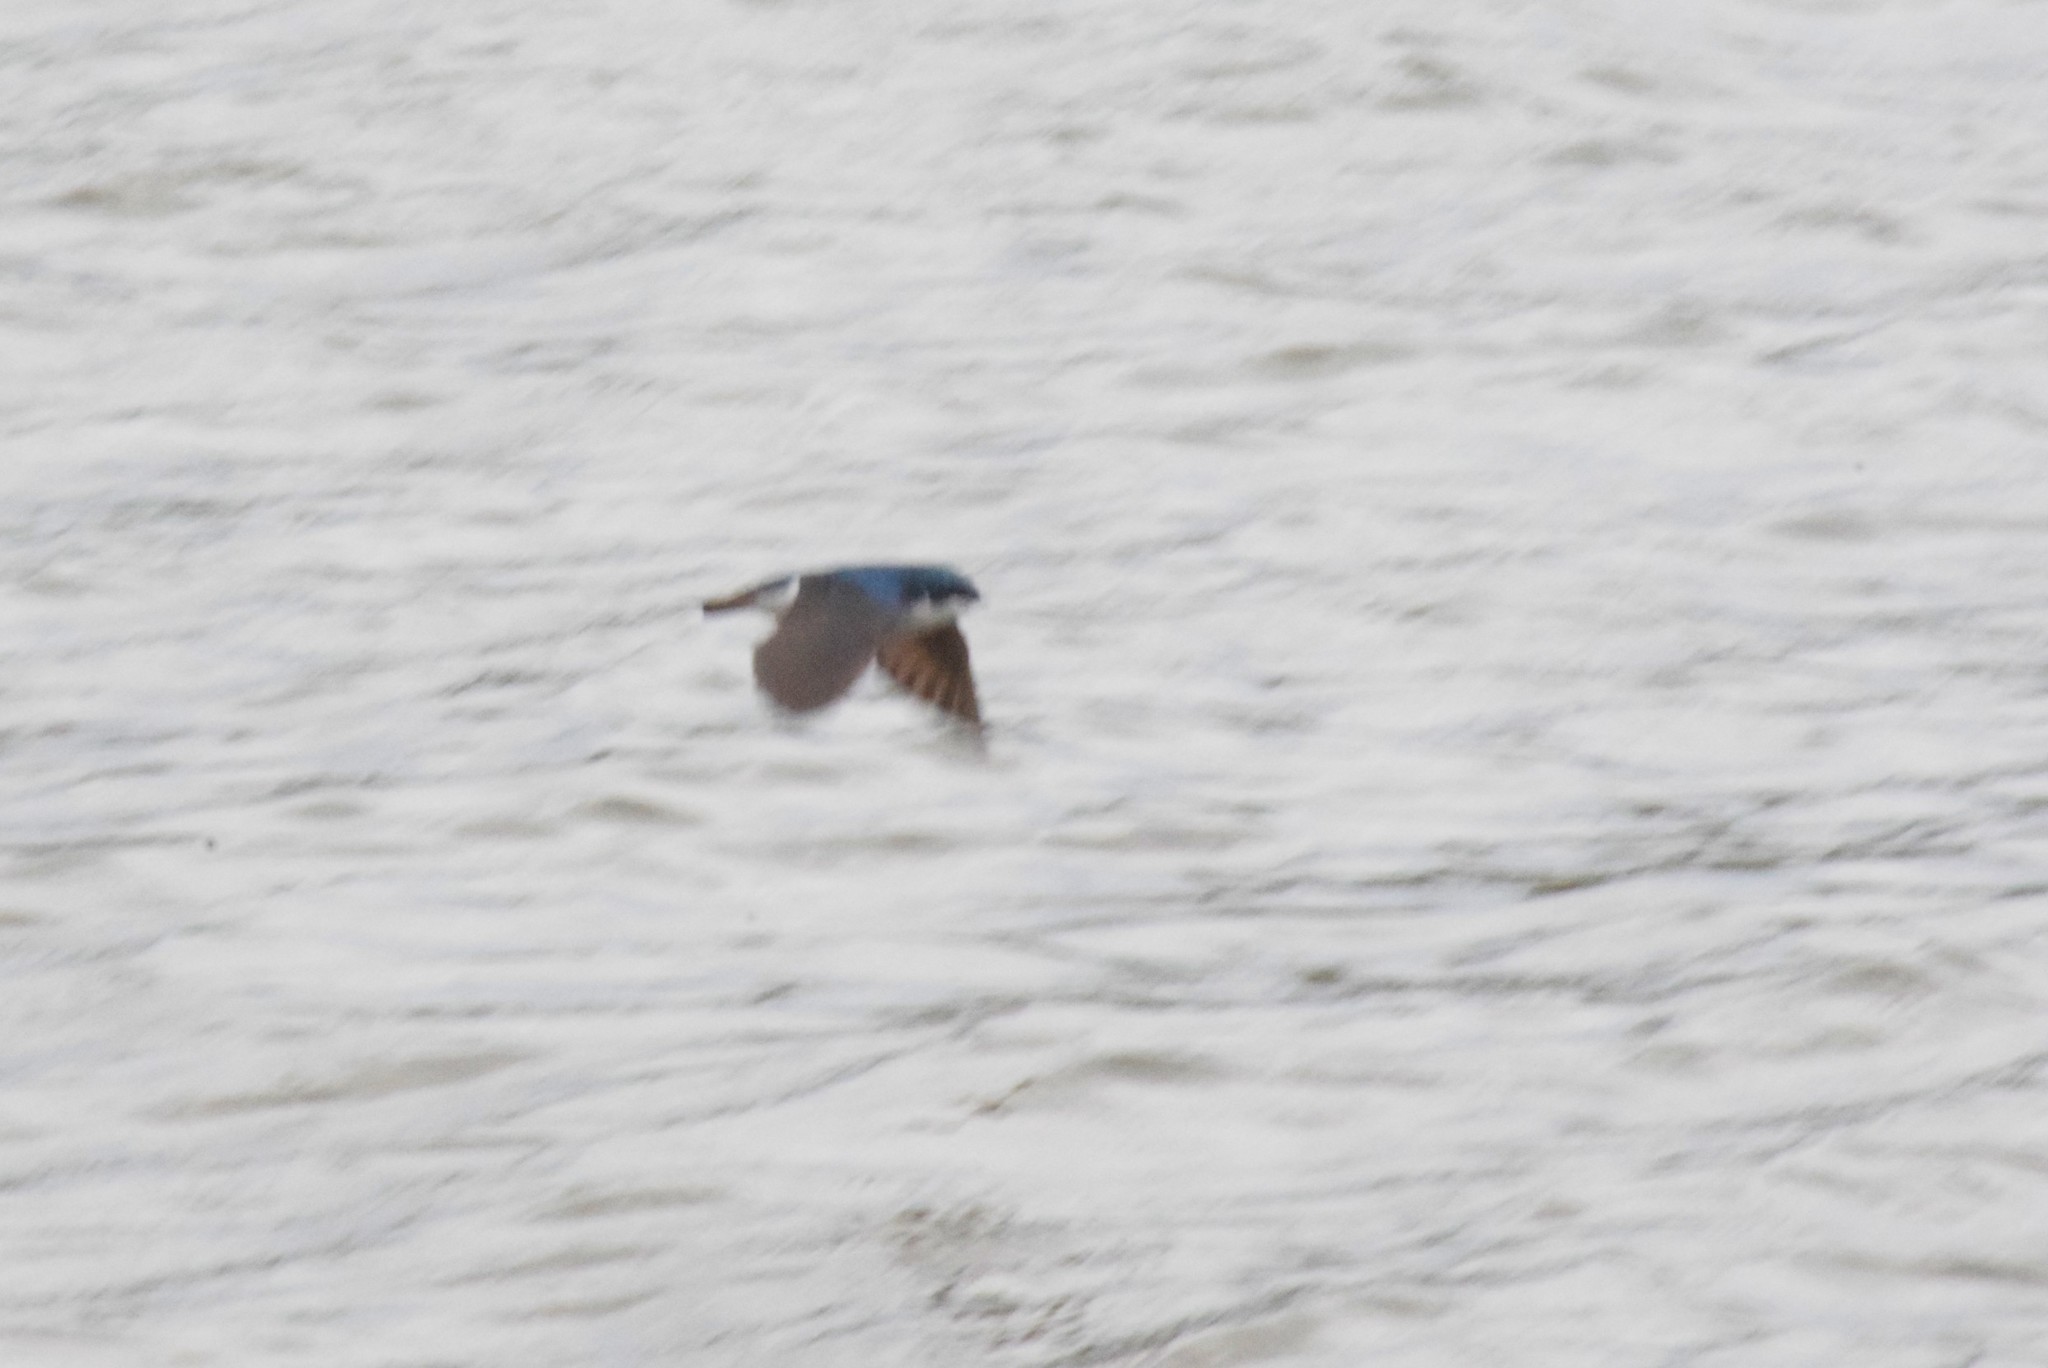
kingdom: Animalia
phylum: Chordata
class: Aves
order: Passeriformes
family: Hirundinidae
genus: Tachycineta
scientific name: Tachycineta bicolor
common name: Tree swallow
